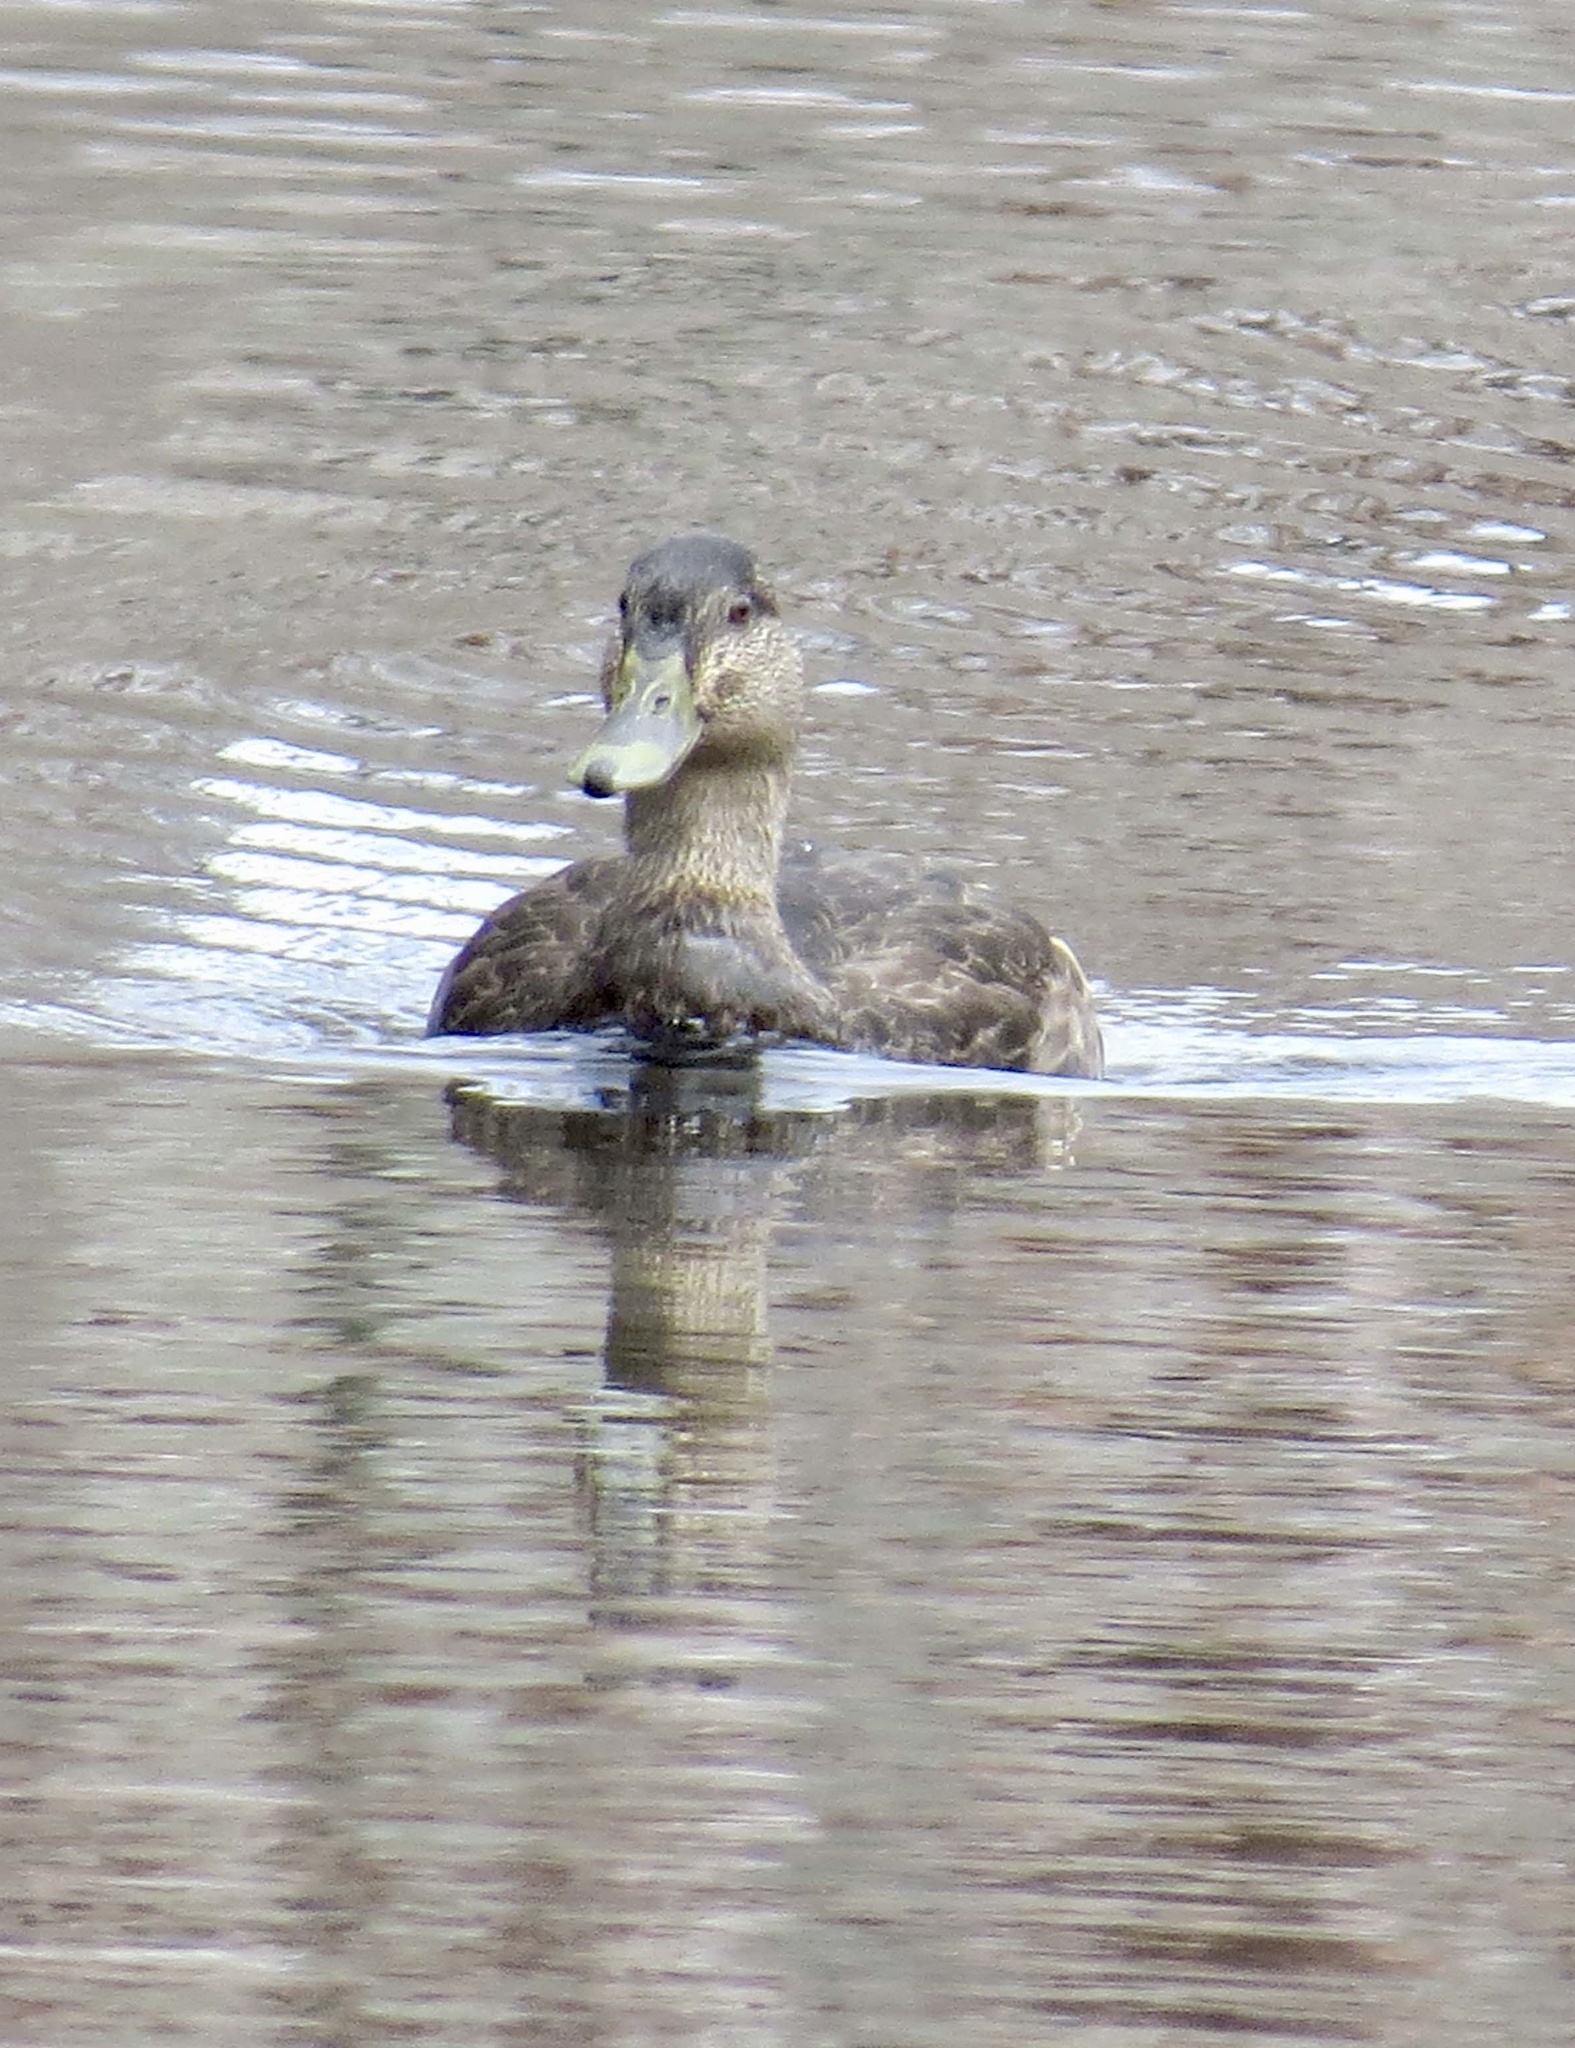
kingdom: Animalia
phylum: Chordata
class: Aves
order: Anseriformes
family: Anatidae
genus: Anas
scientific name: Anas rubripes
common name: American black duck
